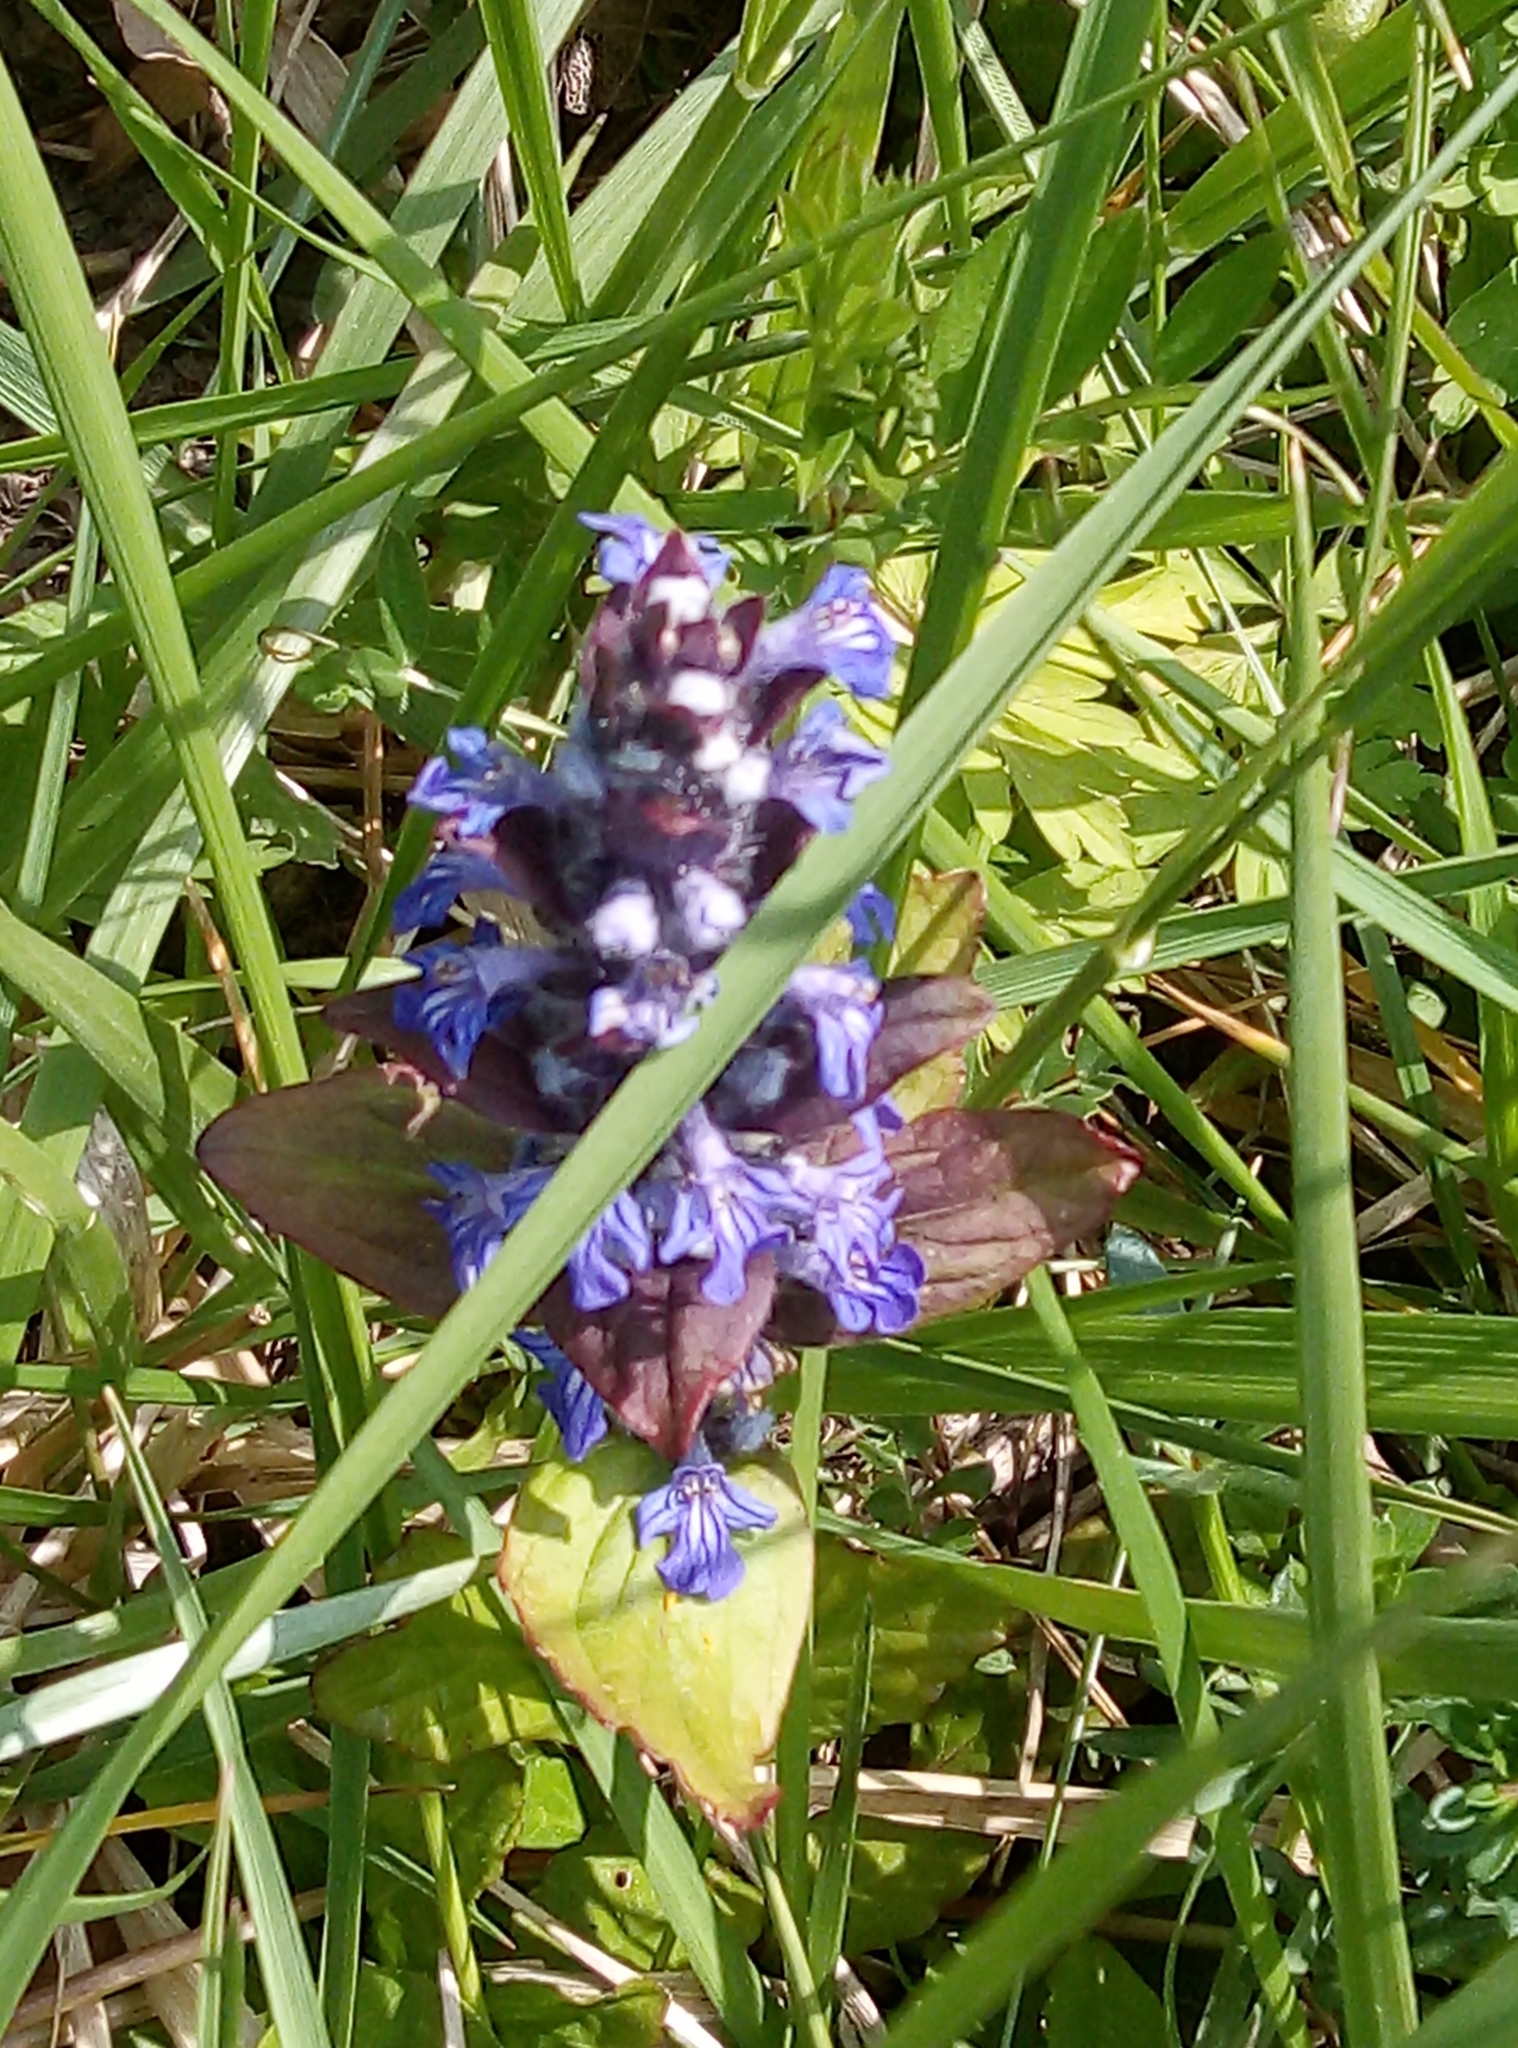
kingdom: Plantae
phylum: Tracheophyta
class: Magnoliopsida
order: Lamiales
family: Lamiaceae
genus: Ajuga
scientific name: Ajuga reptans
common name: Bugle
